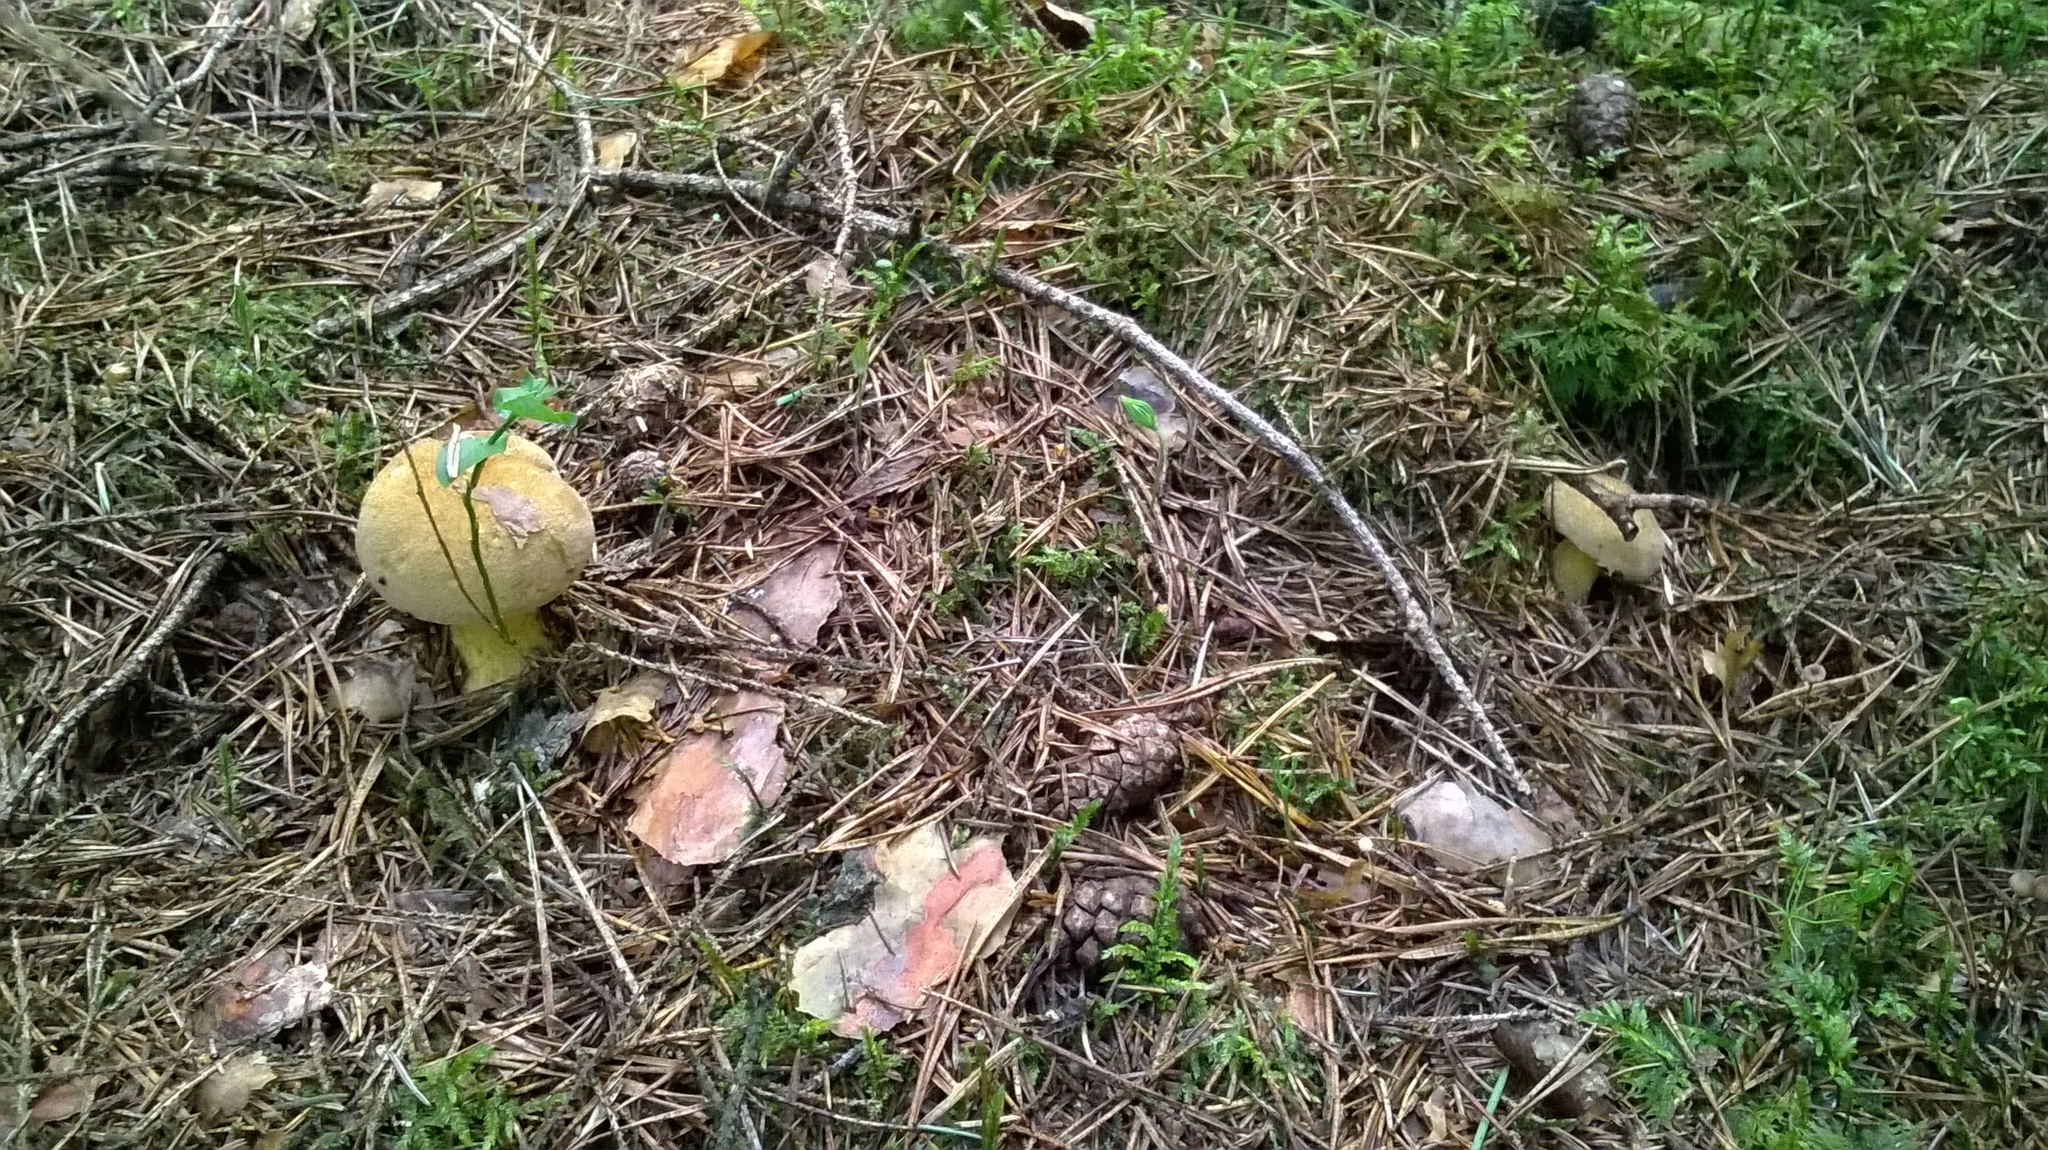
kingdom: Fungi
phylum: Basidiomycota
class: Agaricomycetes
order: Boletales
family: Suillaceae
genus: Suillus
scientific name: Suillus variegatus
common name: Velvet bolete
